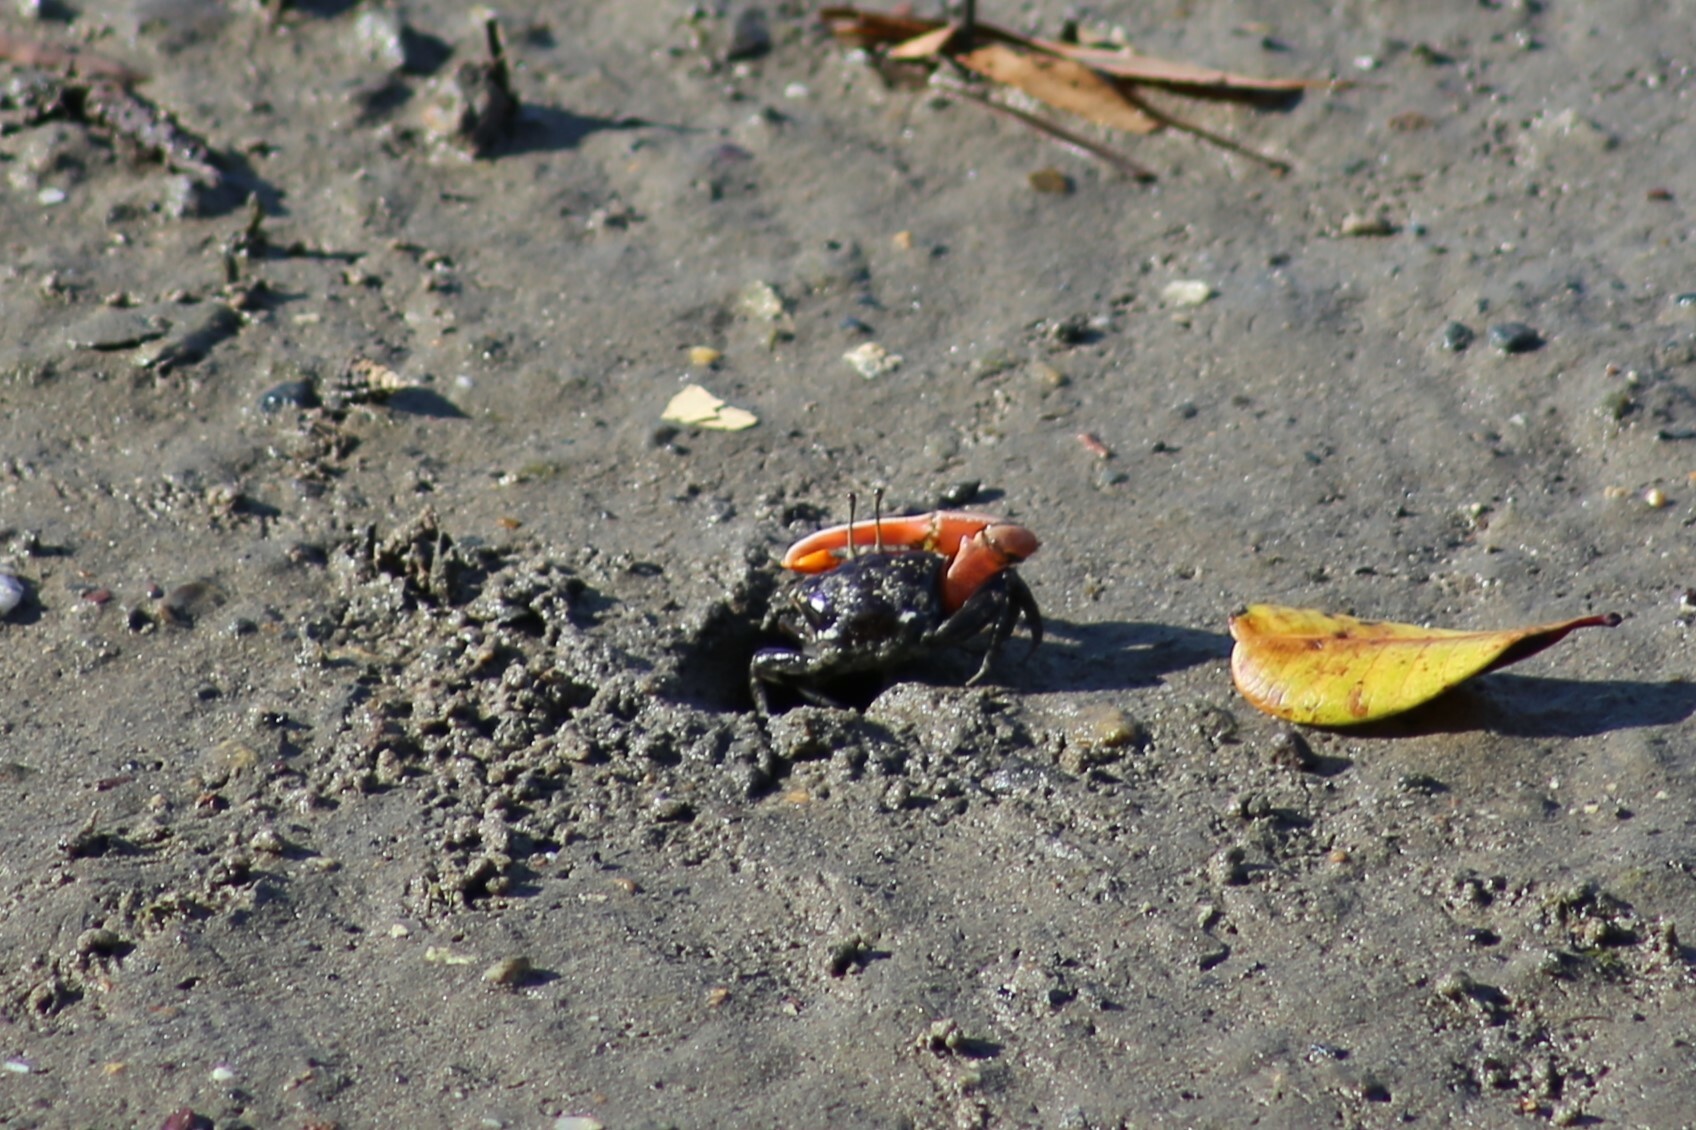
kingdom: Animalia
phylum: Arthropoda
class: Malacostraca
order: Decapoda
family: Ocypodidae
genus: Gelasimus
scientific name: Gelasimus vomeris
